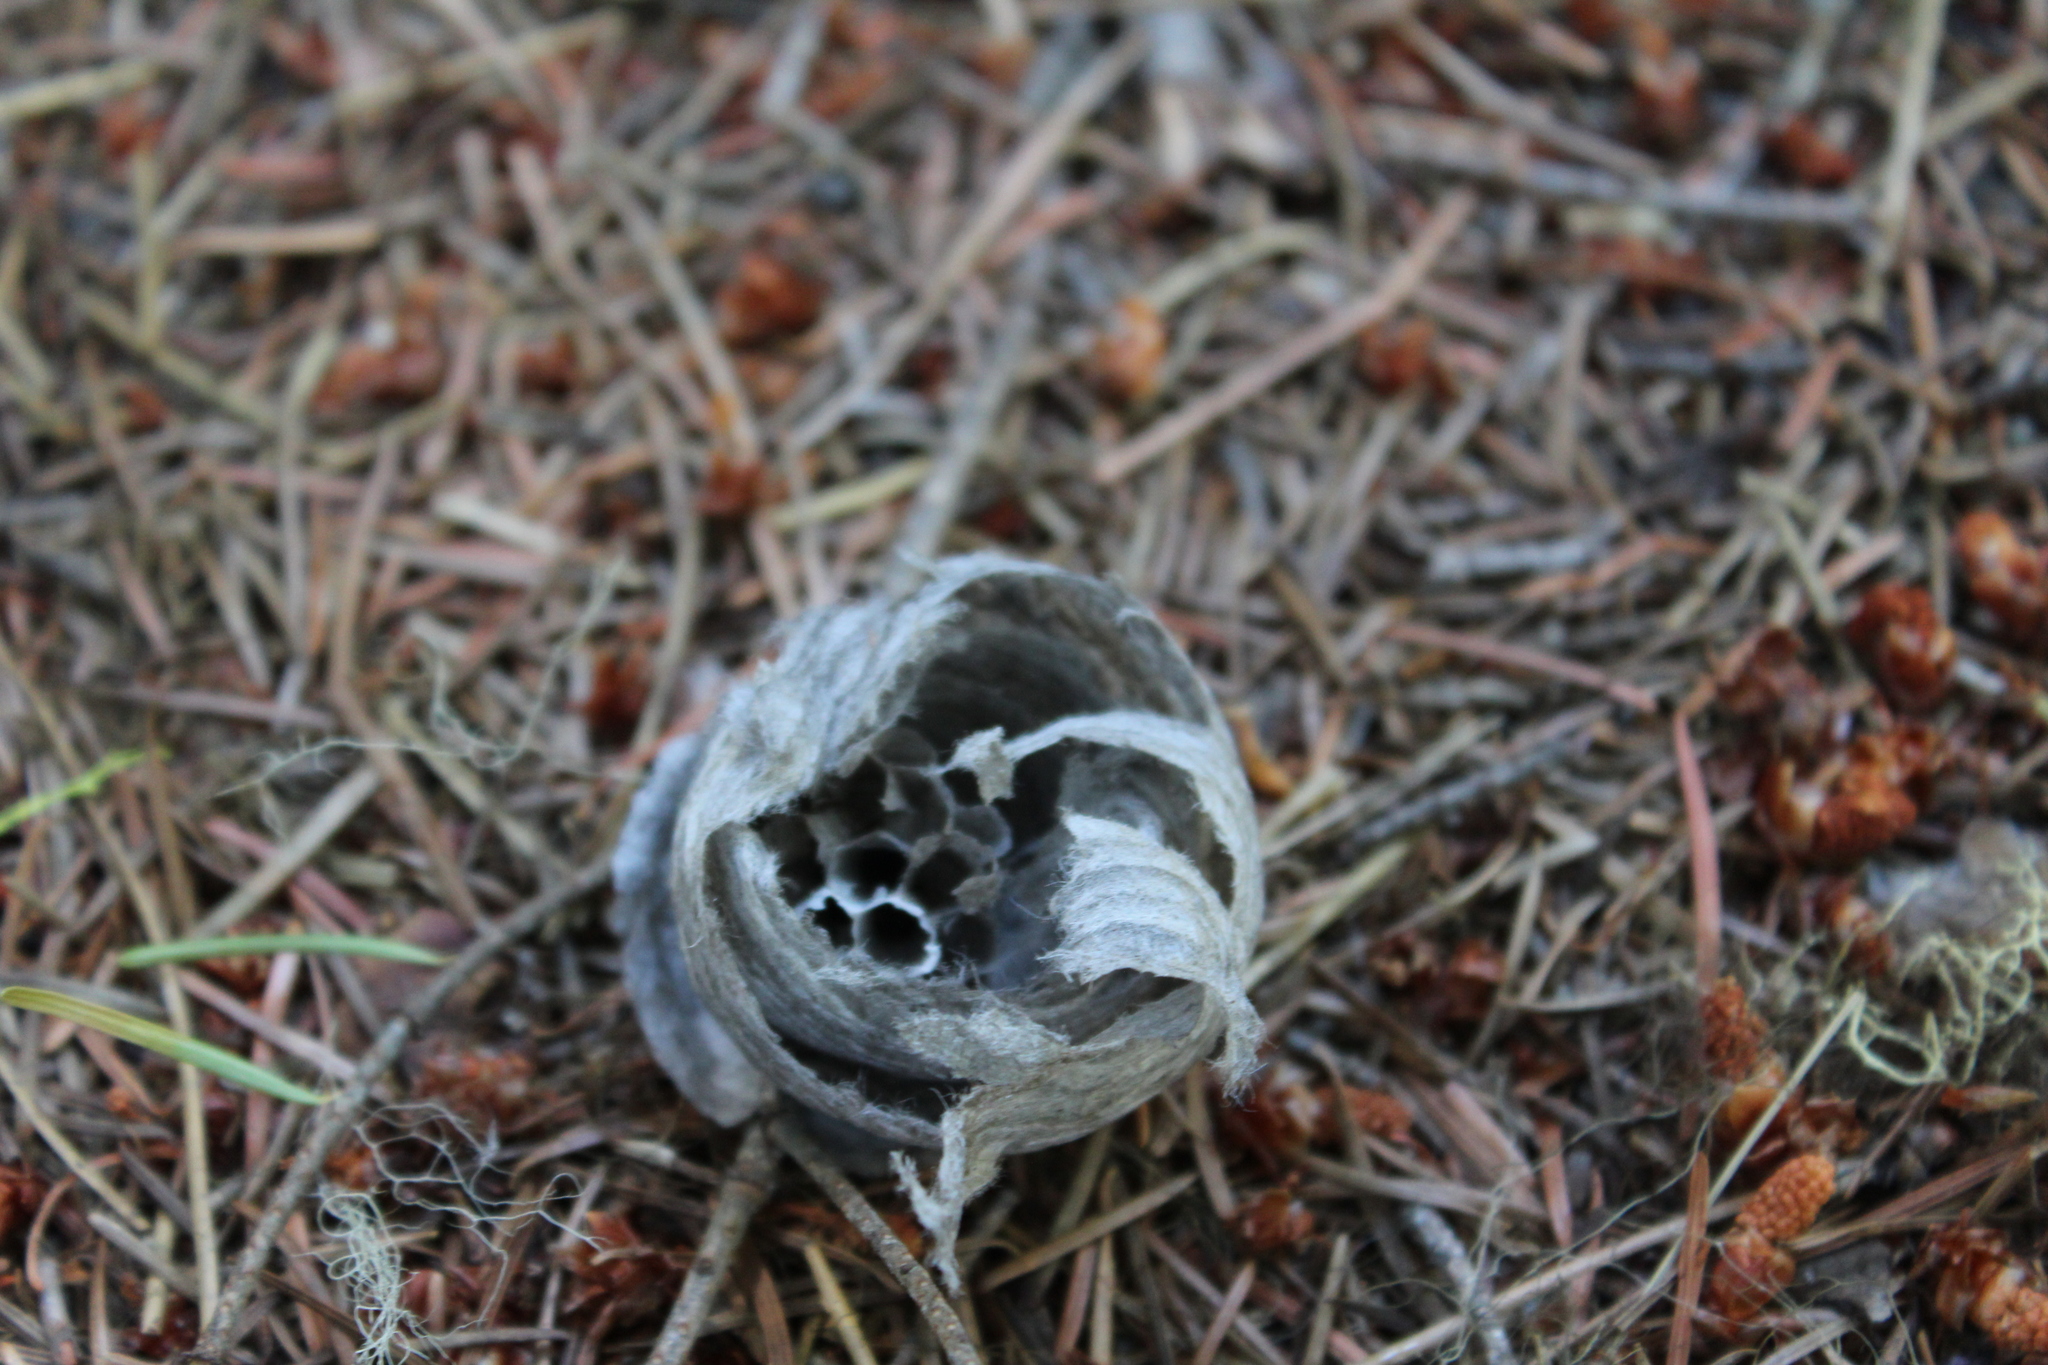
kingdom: Animalia
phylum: Arthropoda
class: Insecta
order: Hymenoptera
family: Vespidae
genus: Dolichovespula
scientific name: Dolichovespula
